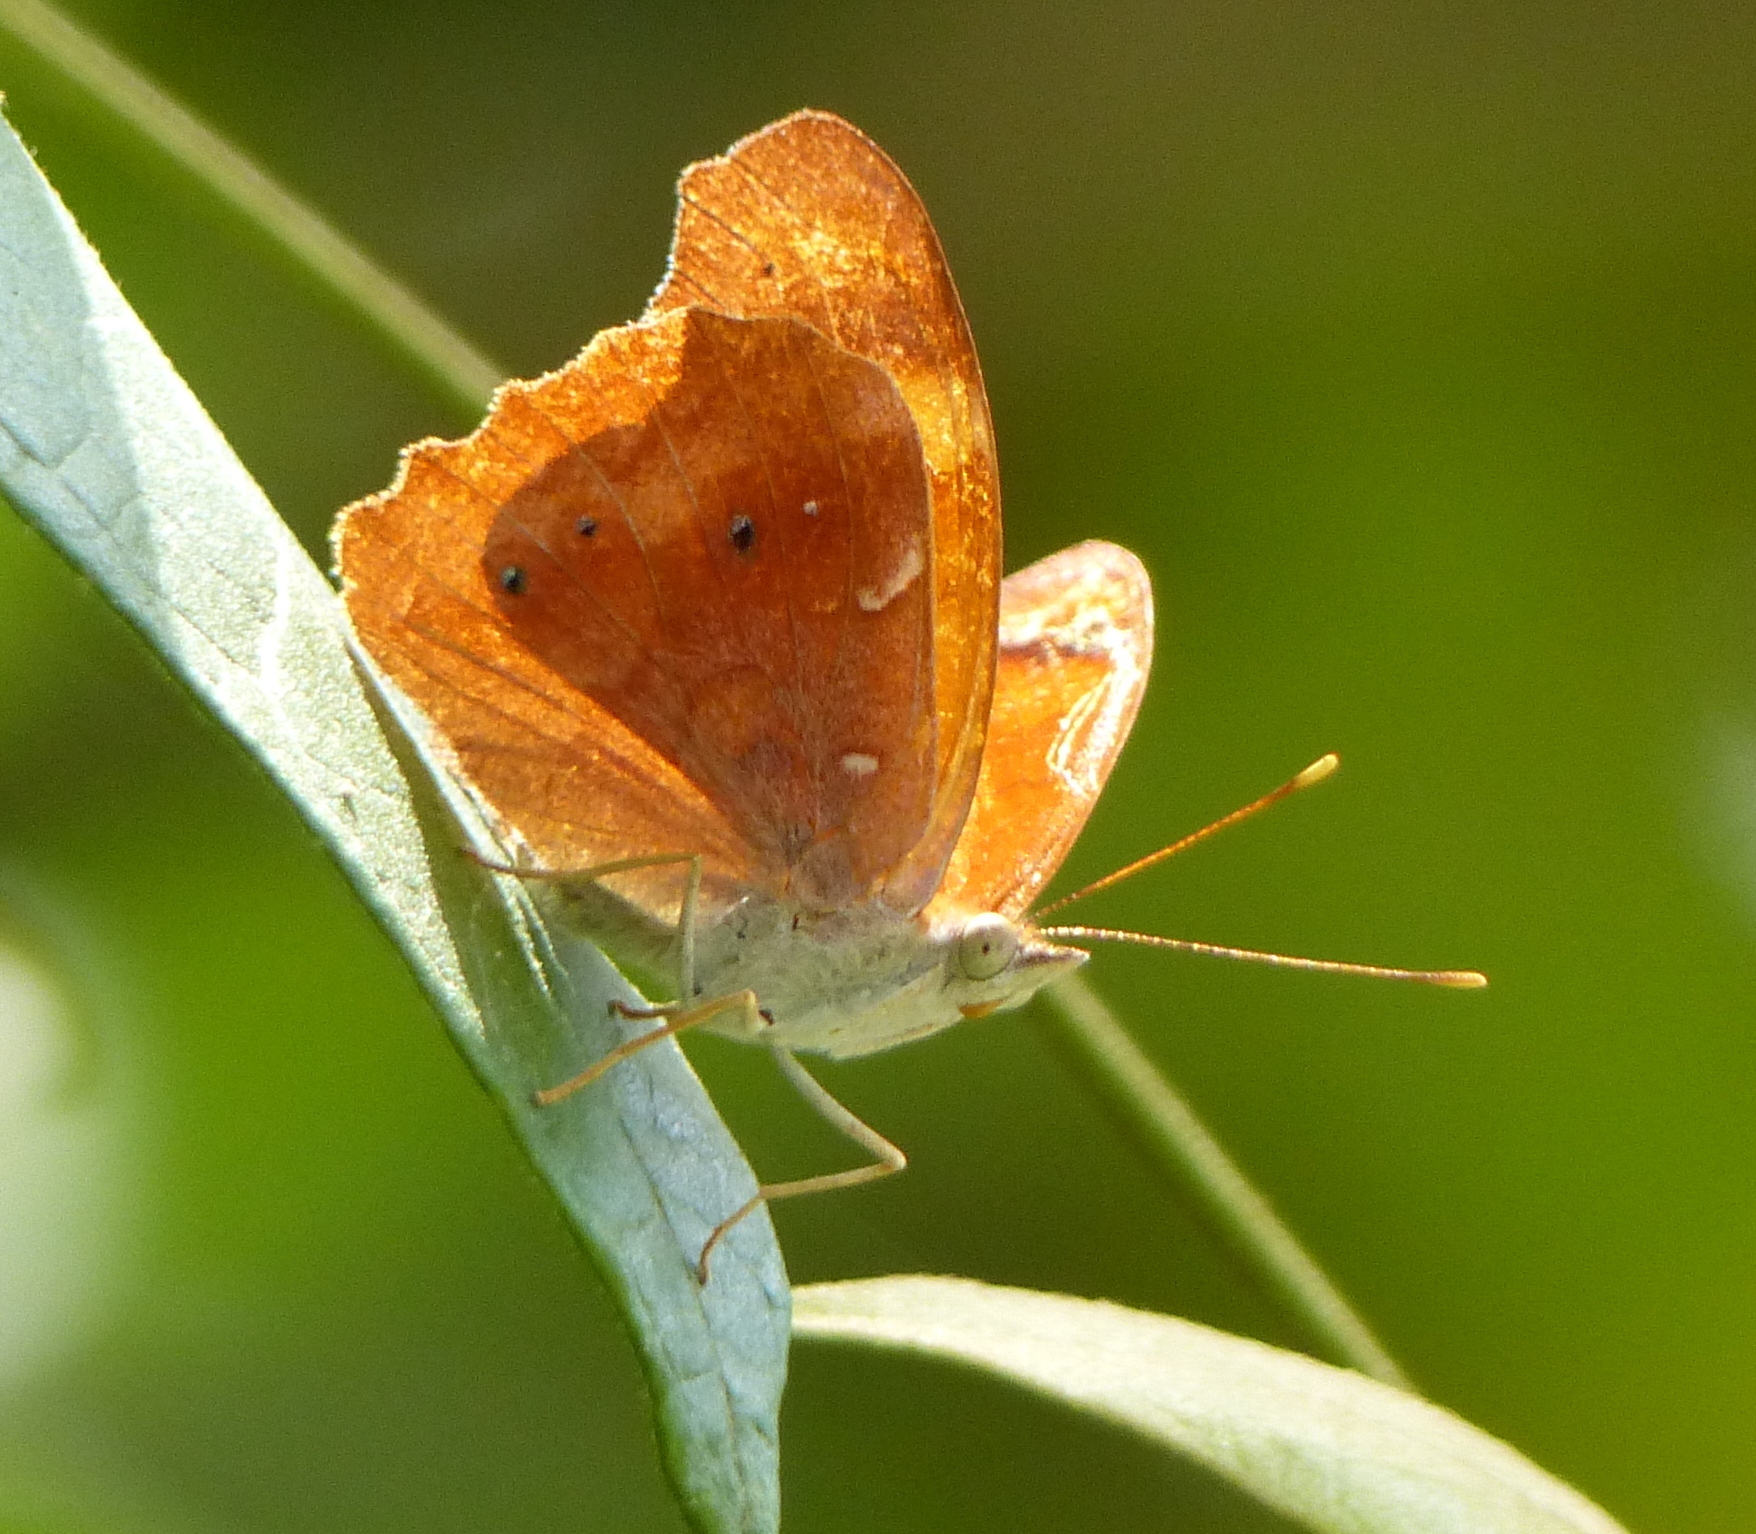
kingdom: Animalia
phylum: Arthropoda
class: Insecta
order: Lepidoptera
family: Nymphalidae
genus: Temenis
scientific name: Temenis laothoe
